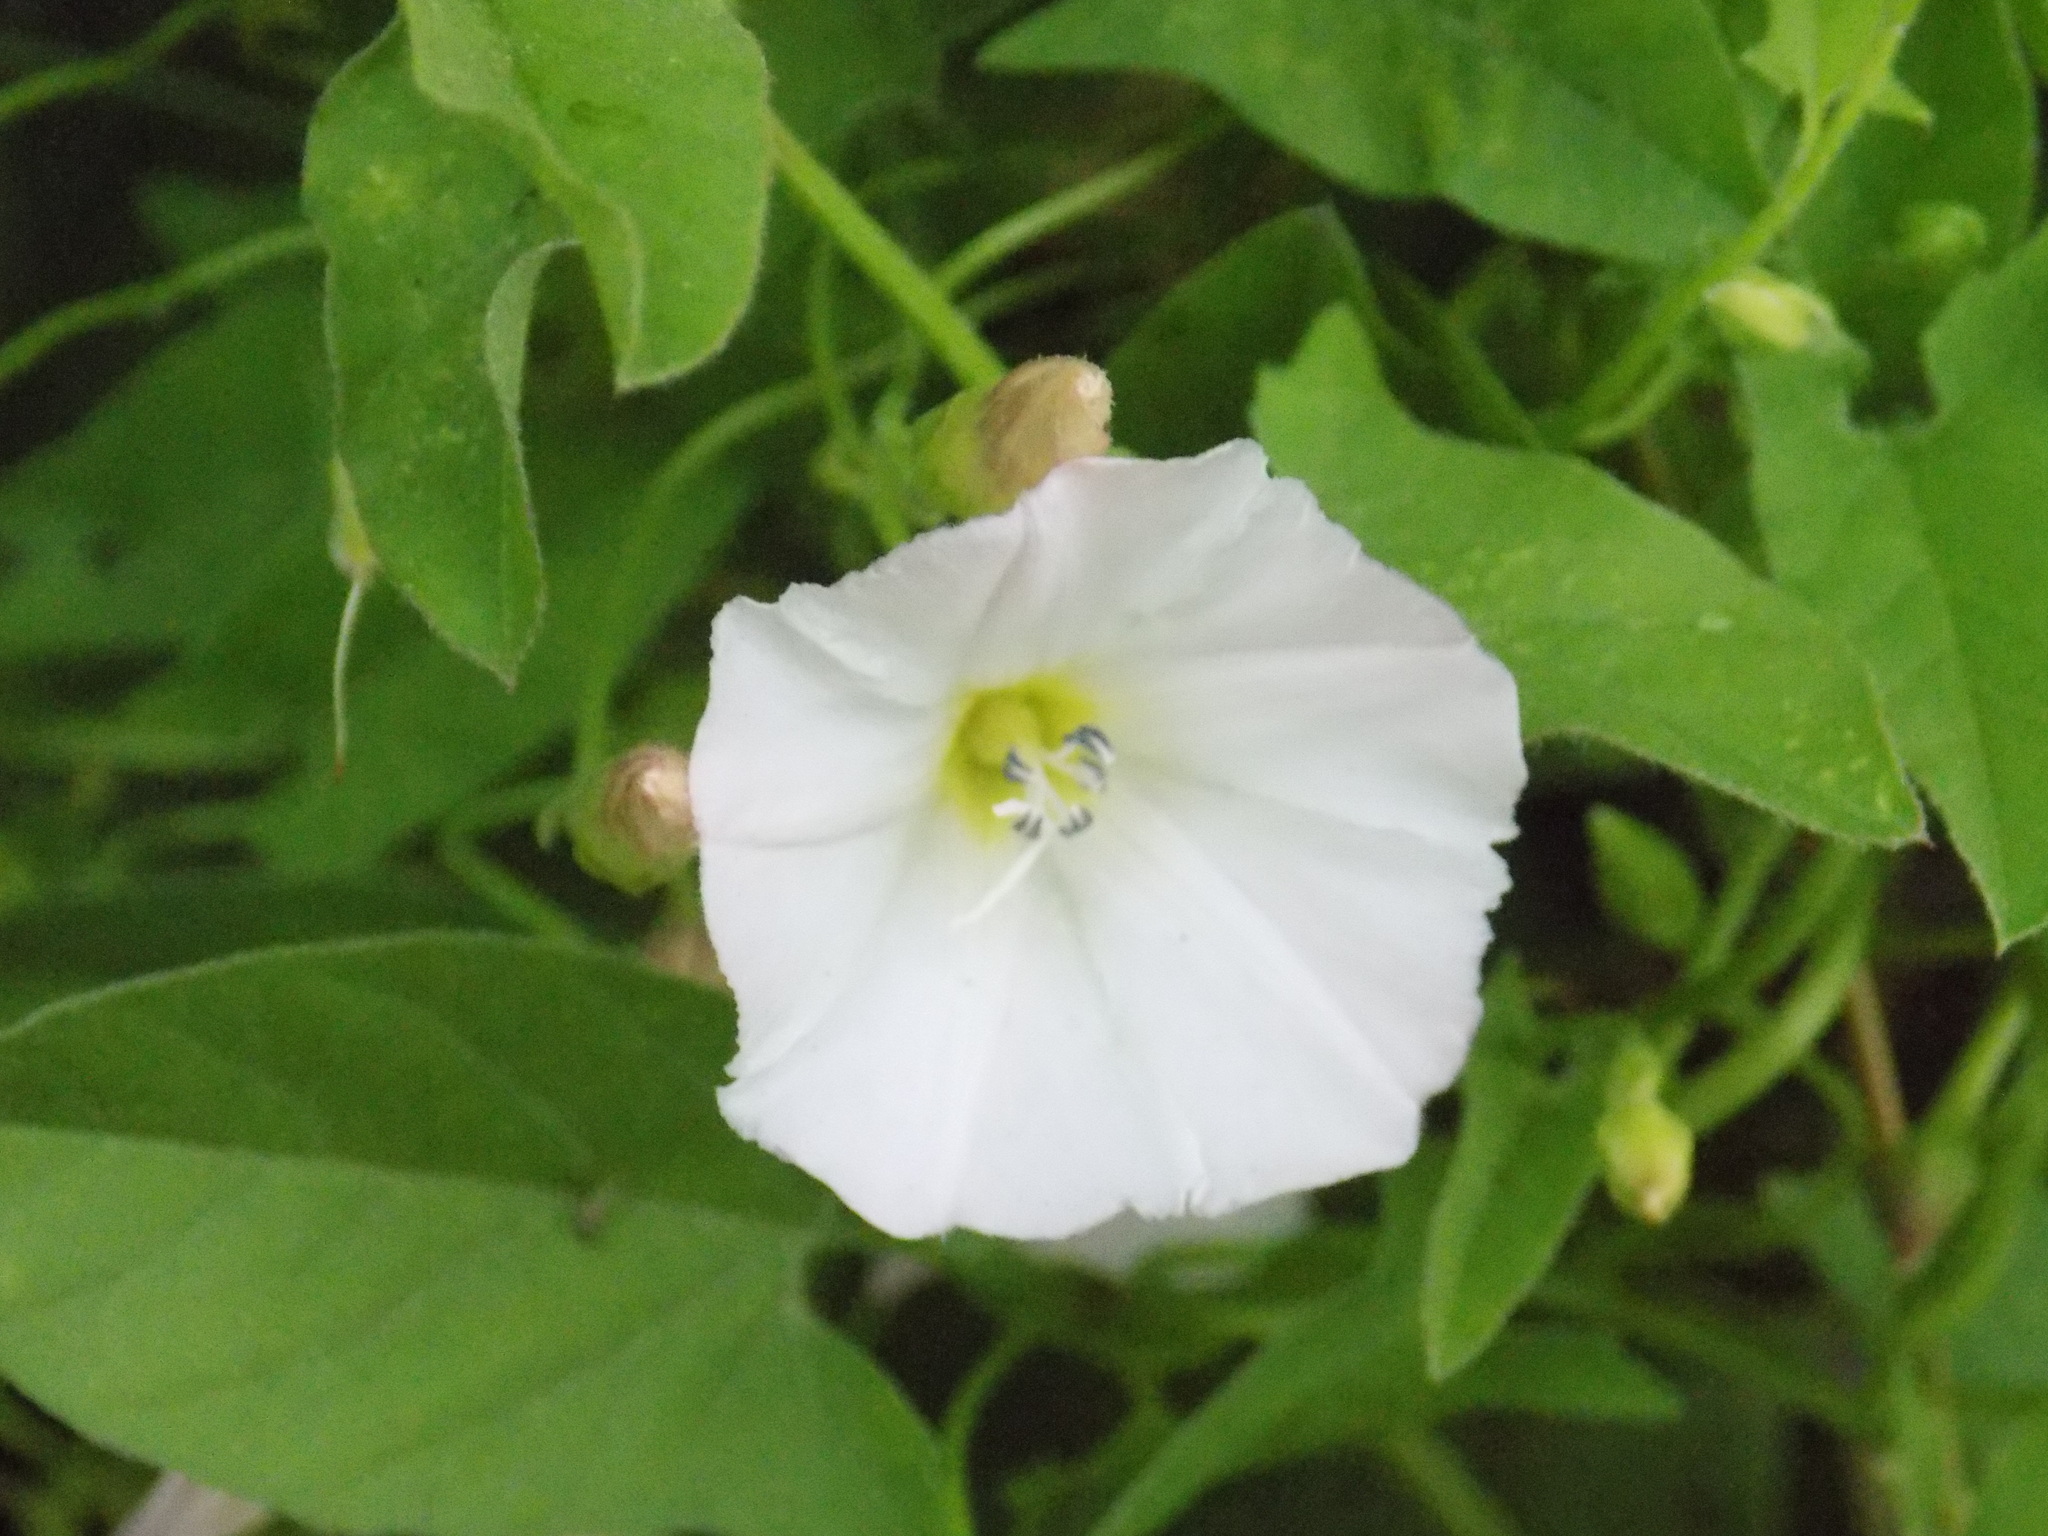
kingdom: Plantae
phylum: Tracheophyta
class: Magnoliopsida
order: Solanales
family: Convolvulaceae
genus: Convolvulus
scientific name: Convolvulus arvensis
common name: Field bindweed
